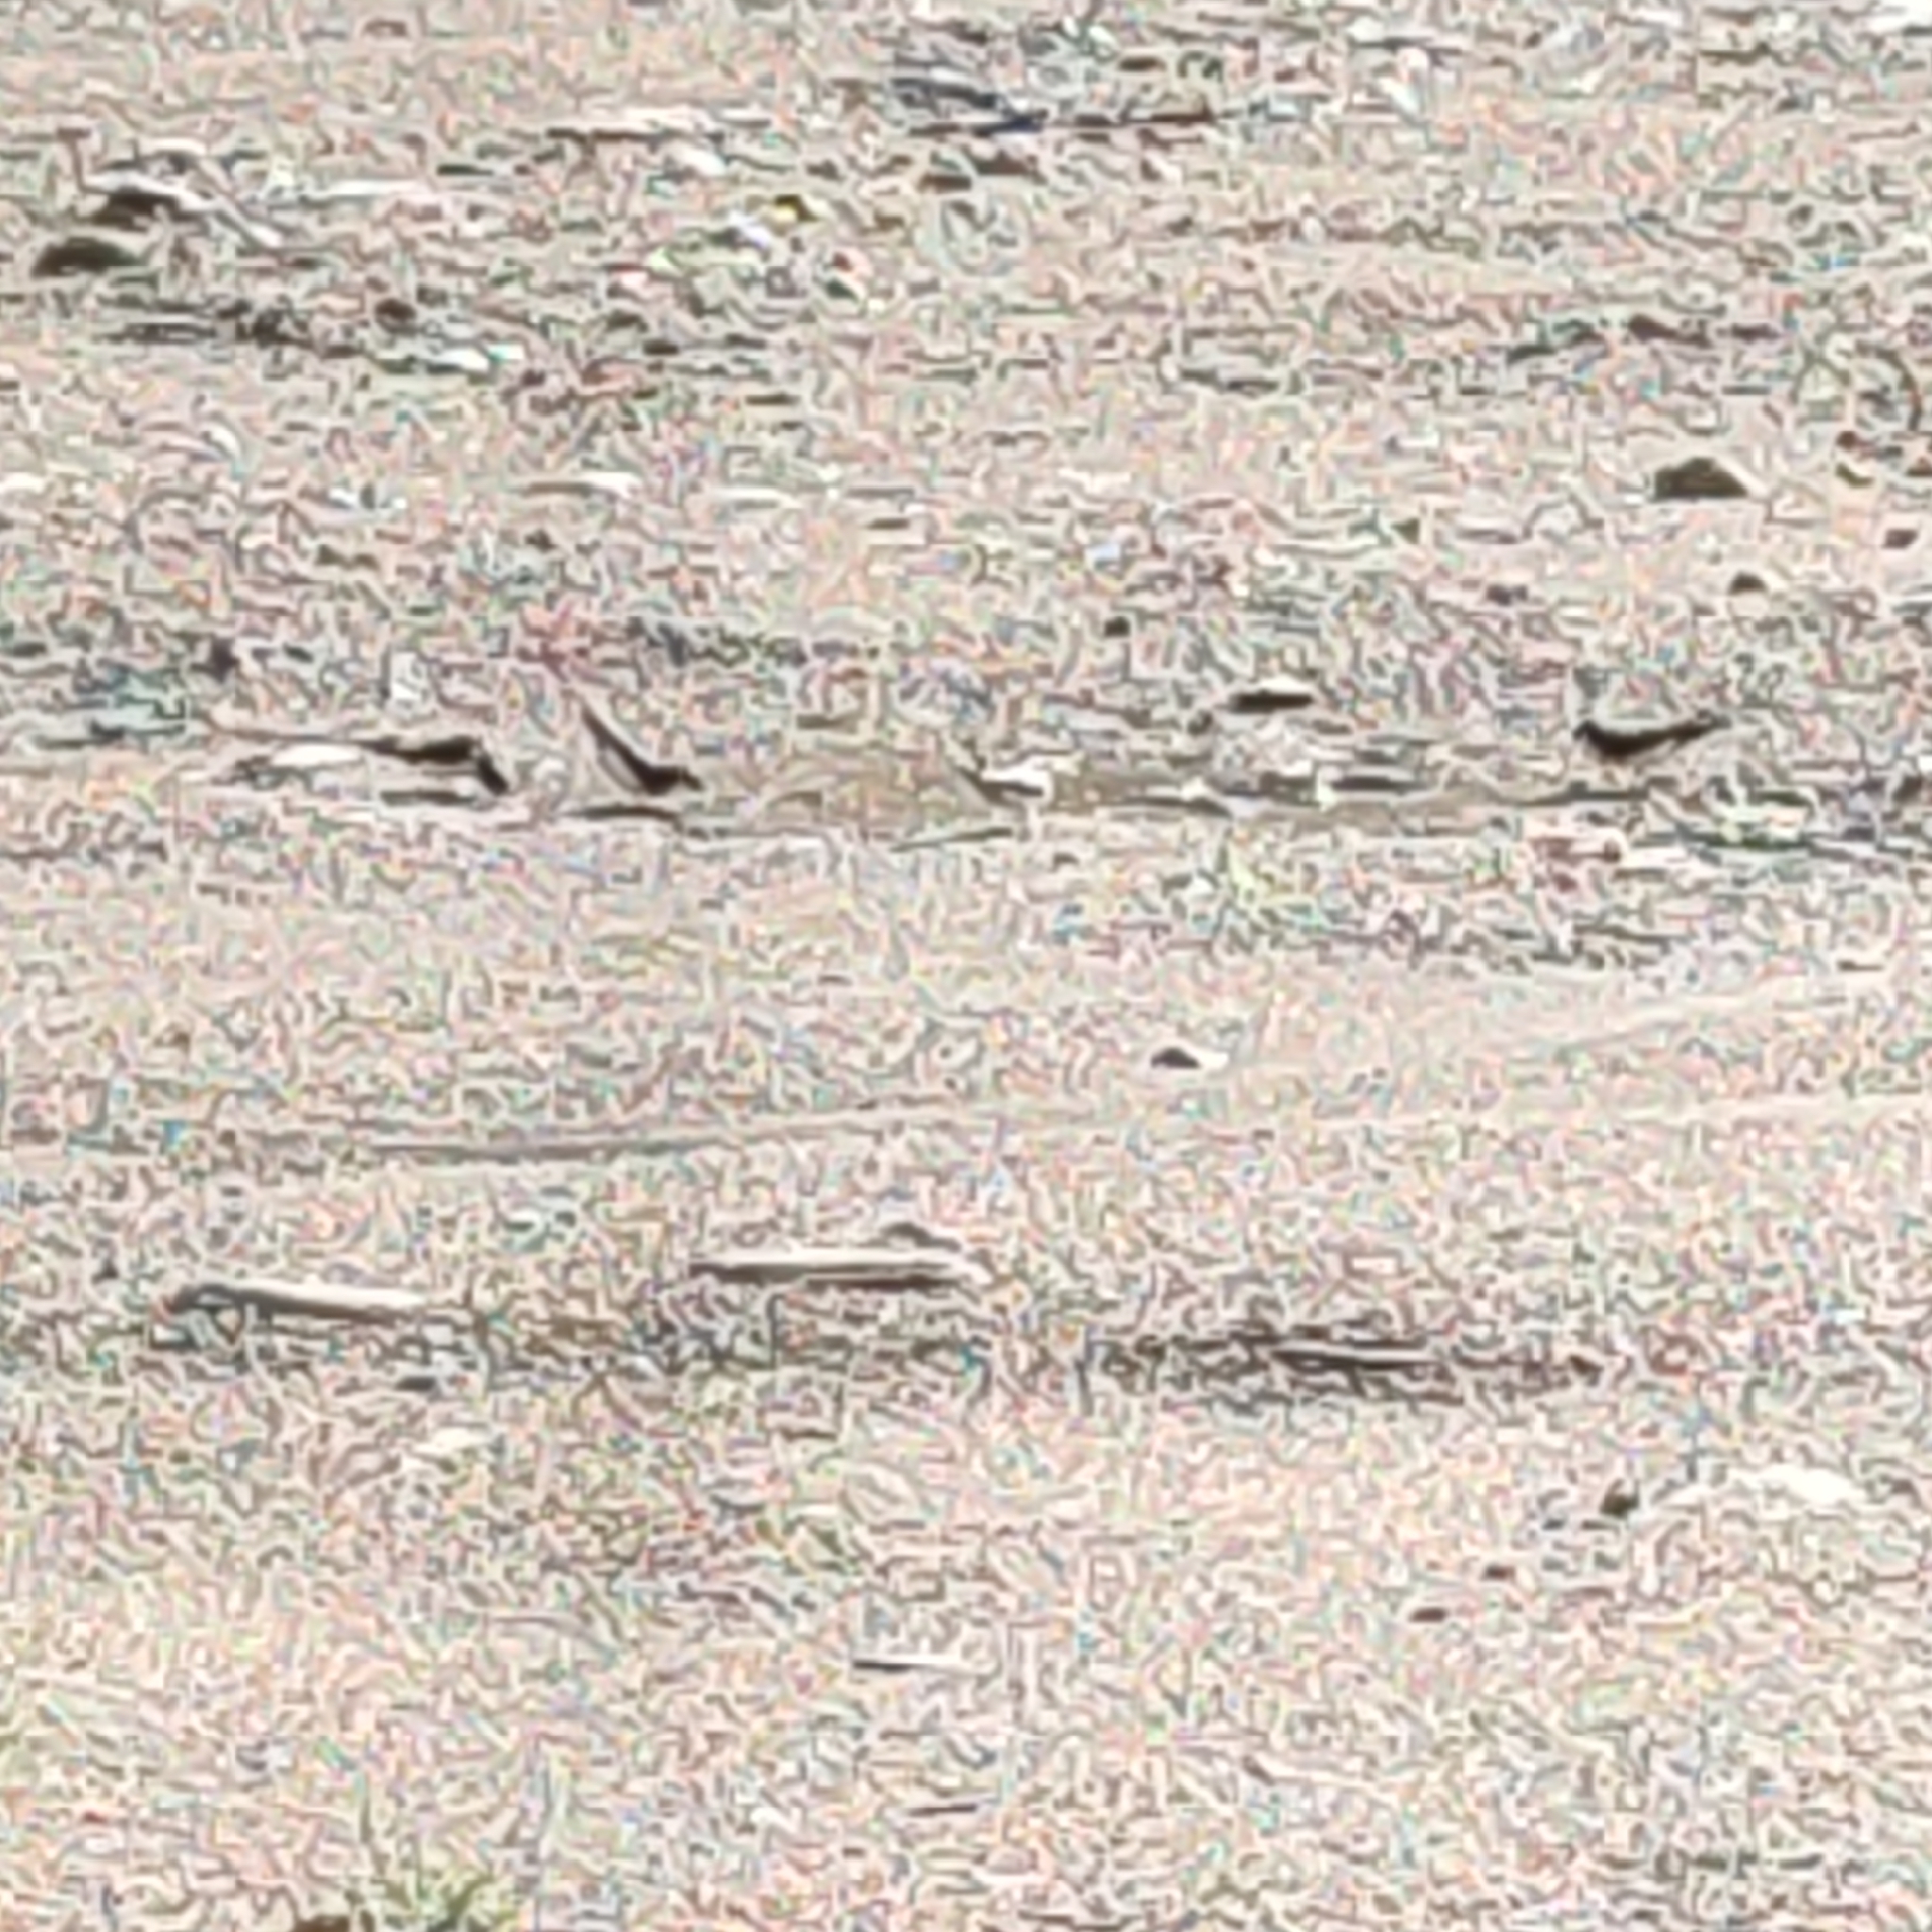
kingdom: Animalia
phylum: Chordata
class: Aves
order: Passeriformes
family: Hirundinidae
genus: Delichon
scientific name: Delichon urbicum
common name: Common house martin
